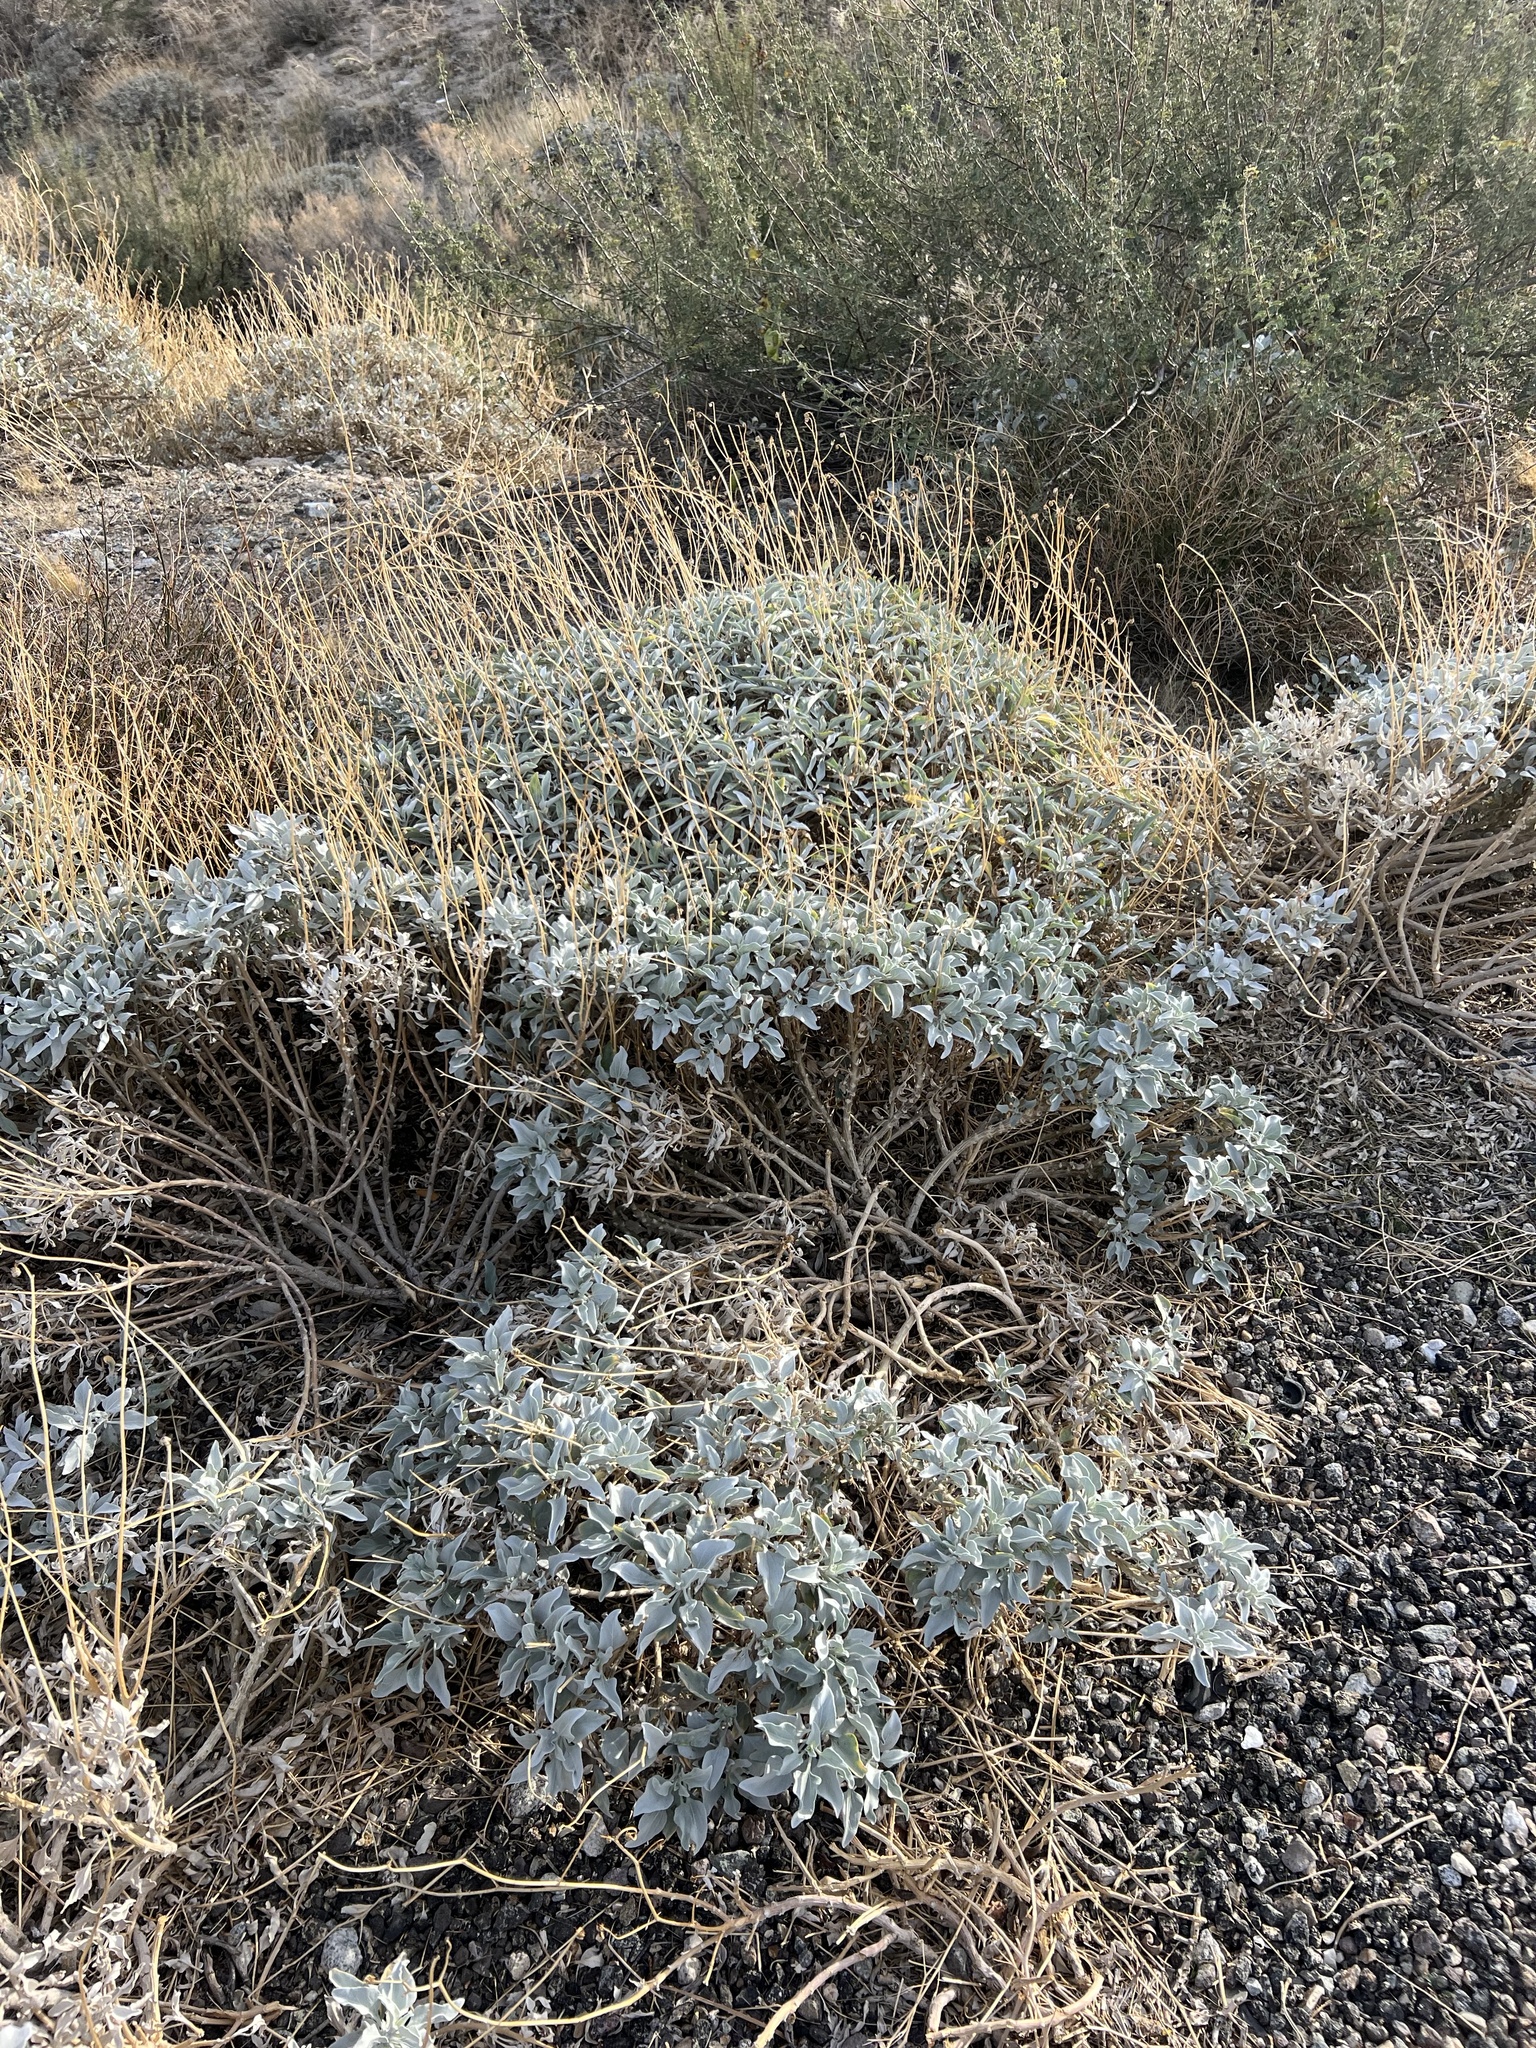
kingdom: Plantae
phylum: Tracheophyta
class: Magnoliopsida
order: Asterales
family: Asteraceae
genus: Encelia
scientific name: Encelia farinosa
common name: Brittlebush
